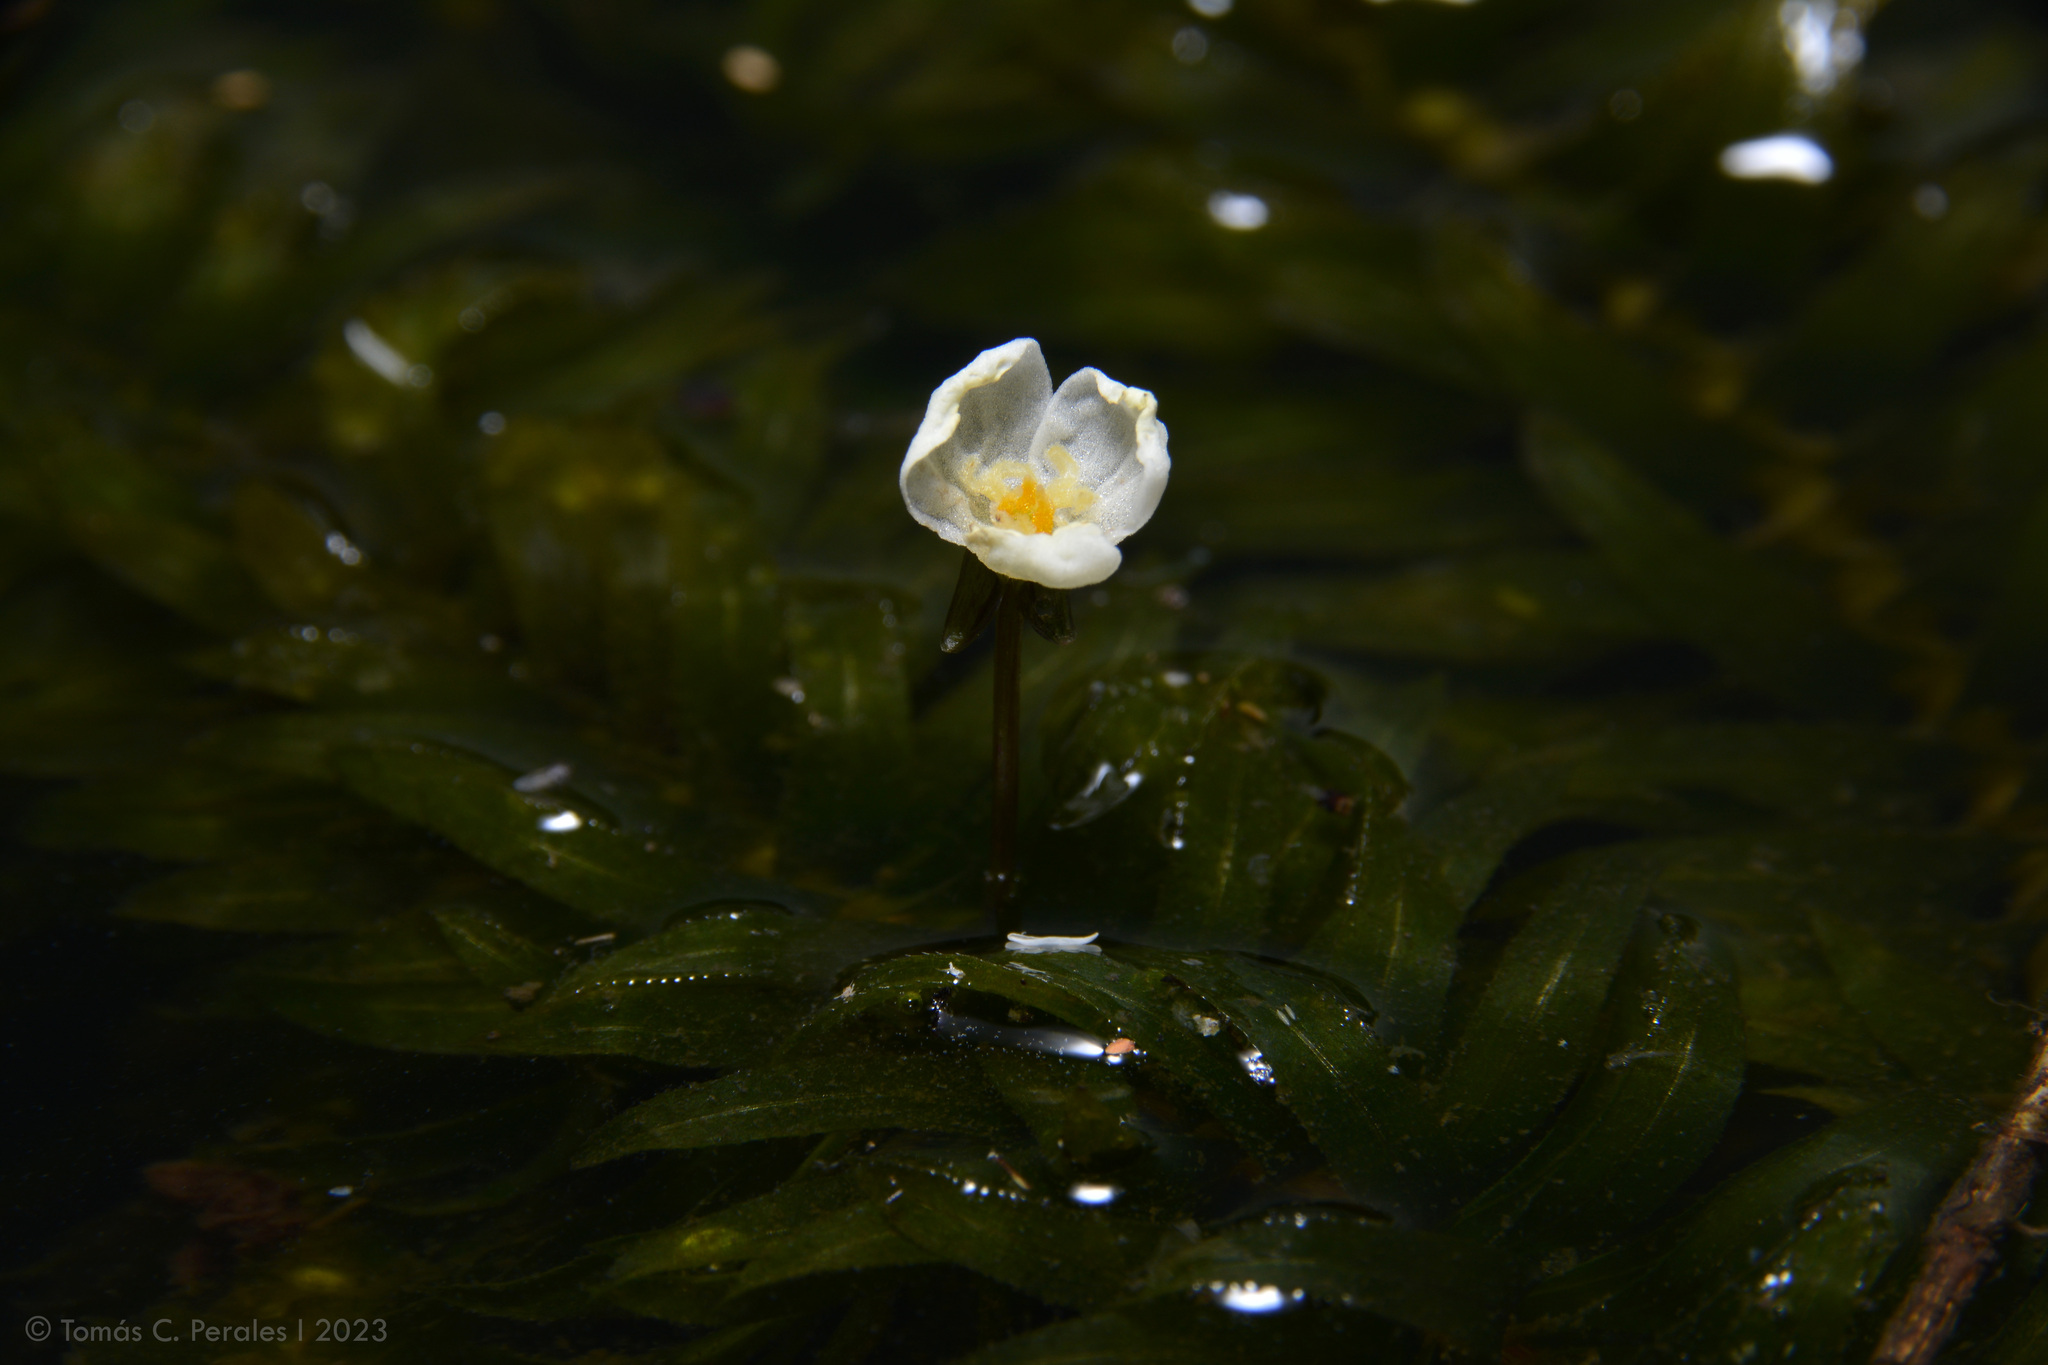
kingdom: Plantae
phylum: Tracheophyta
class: Liliopsida
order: Alismatales
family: Hydrocharitaceae
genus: Elodea
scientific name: Elodea densa
